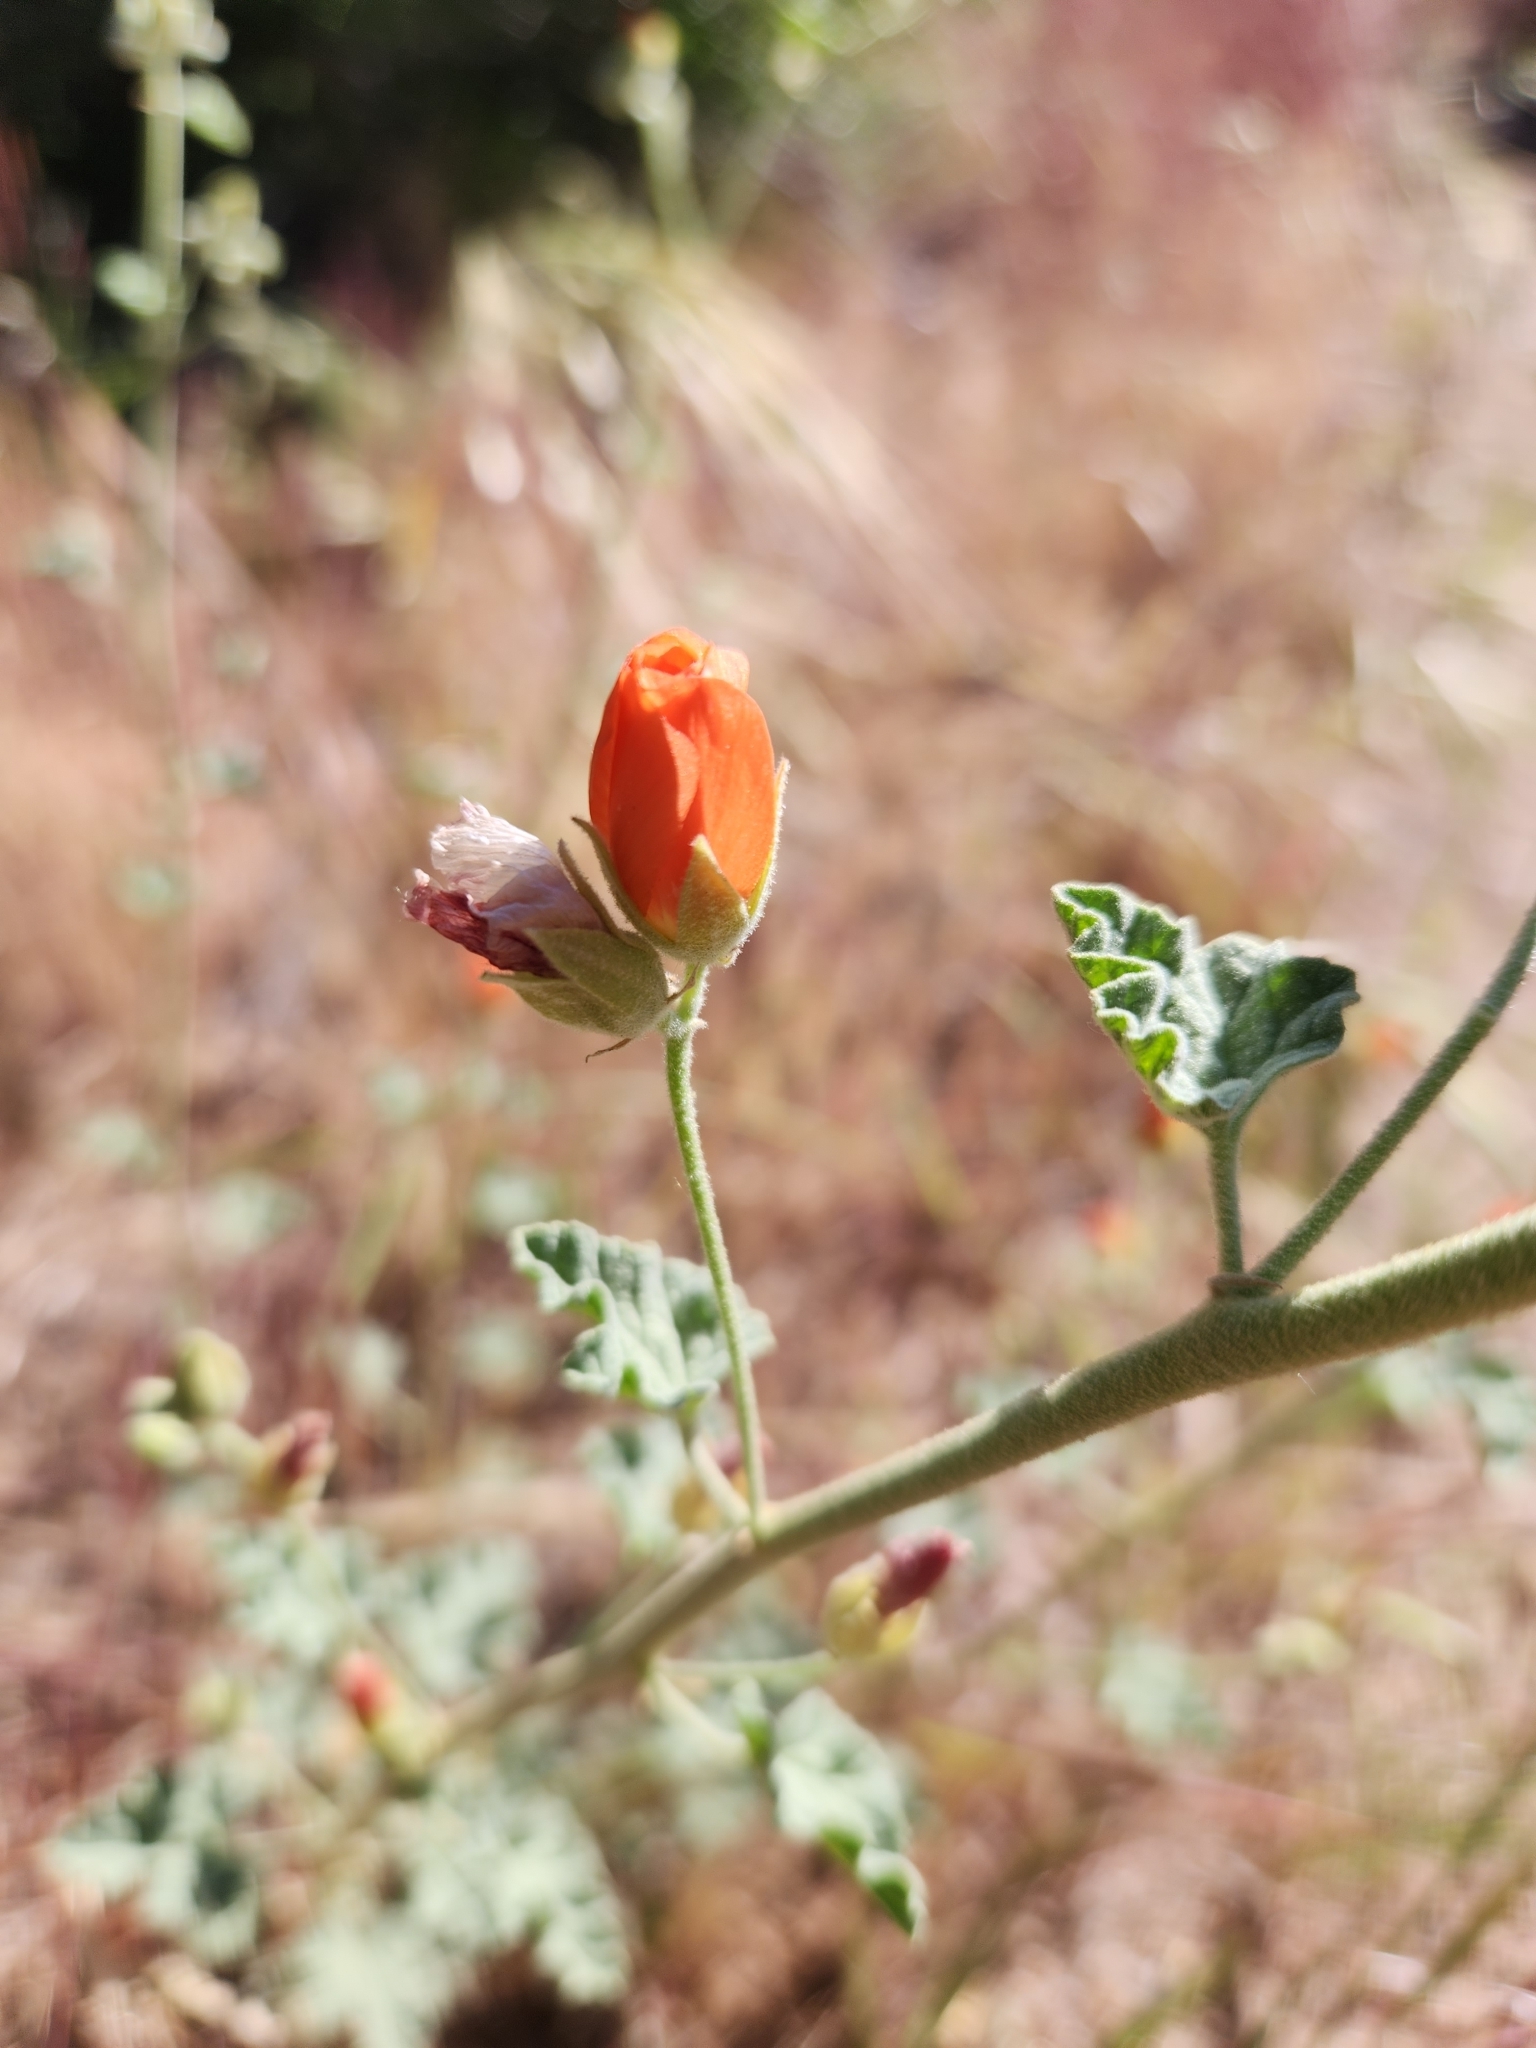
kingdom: Plantae
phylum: Tracheophyta
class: Magnoliopsida
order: Malvales
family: Malvaceae
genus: Sphaeralcea
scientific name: Sphaeralcea ambigua
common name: Apricot globe-mallow
